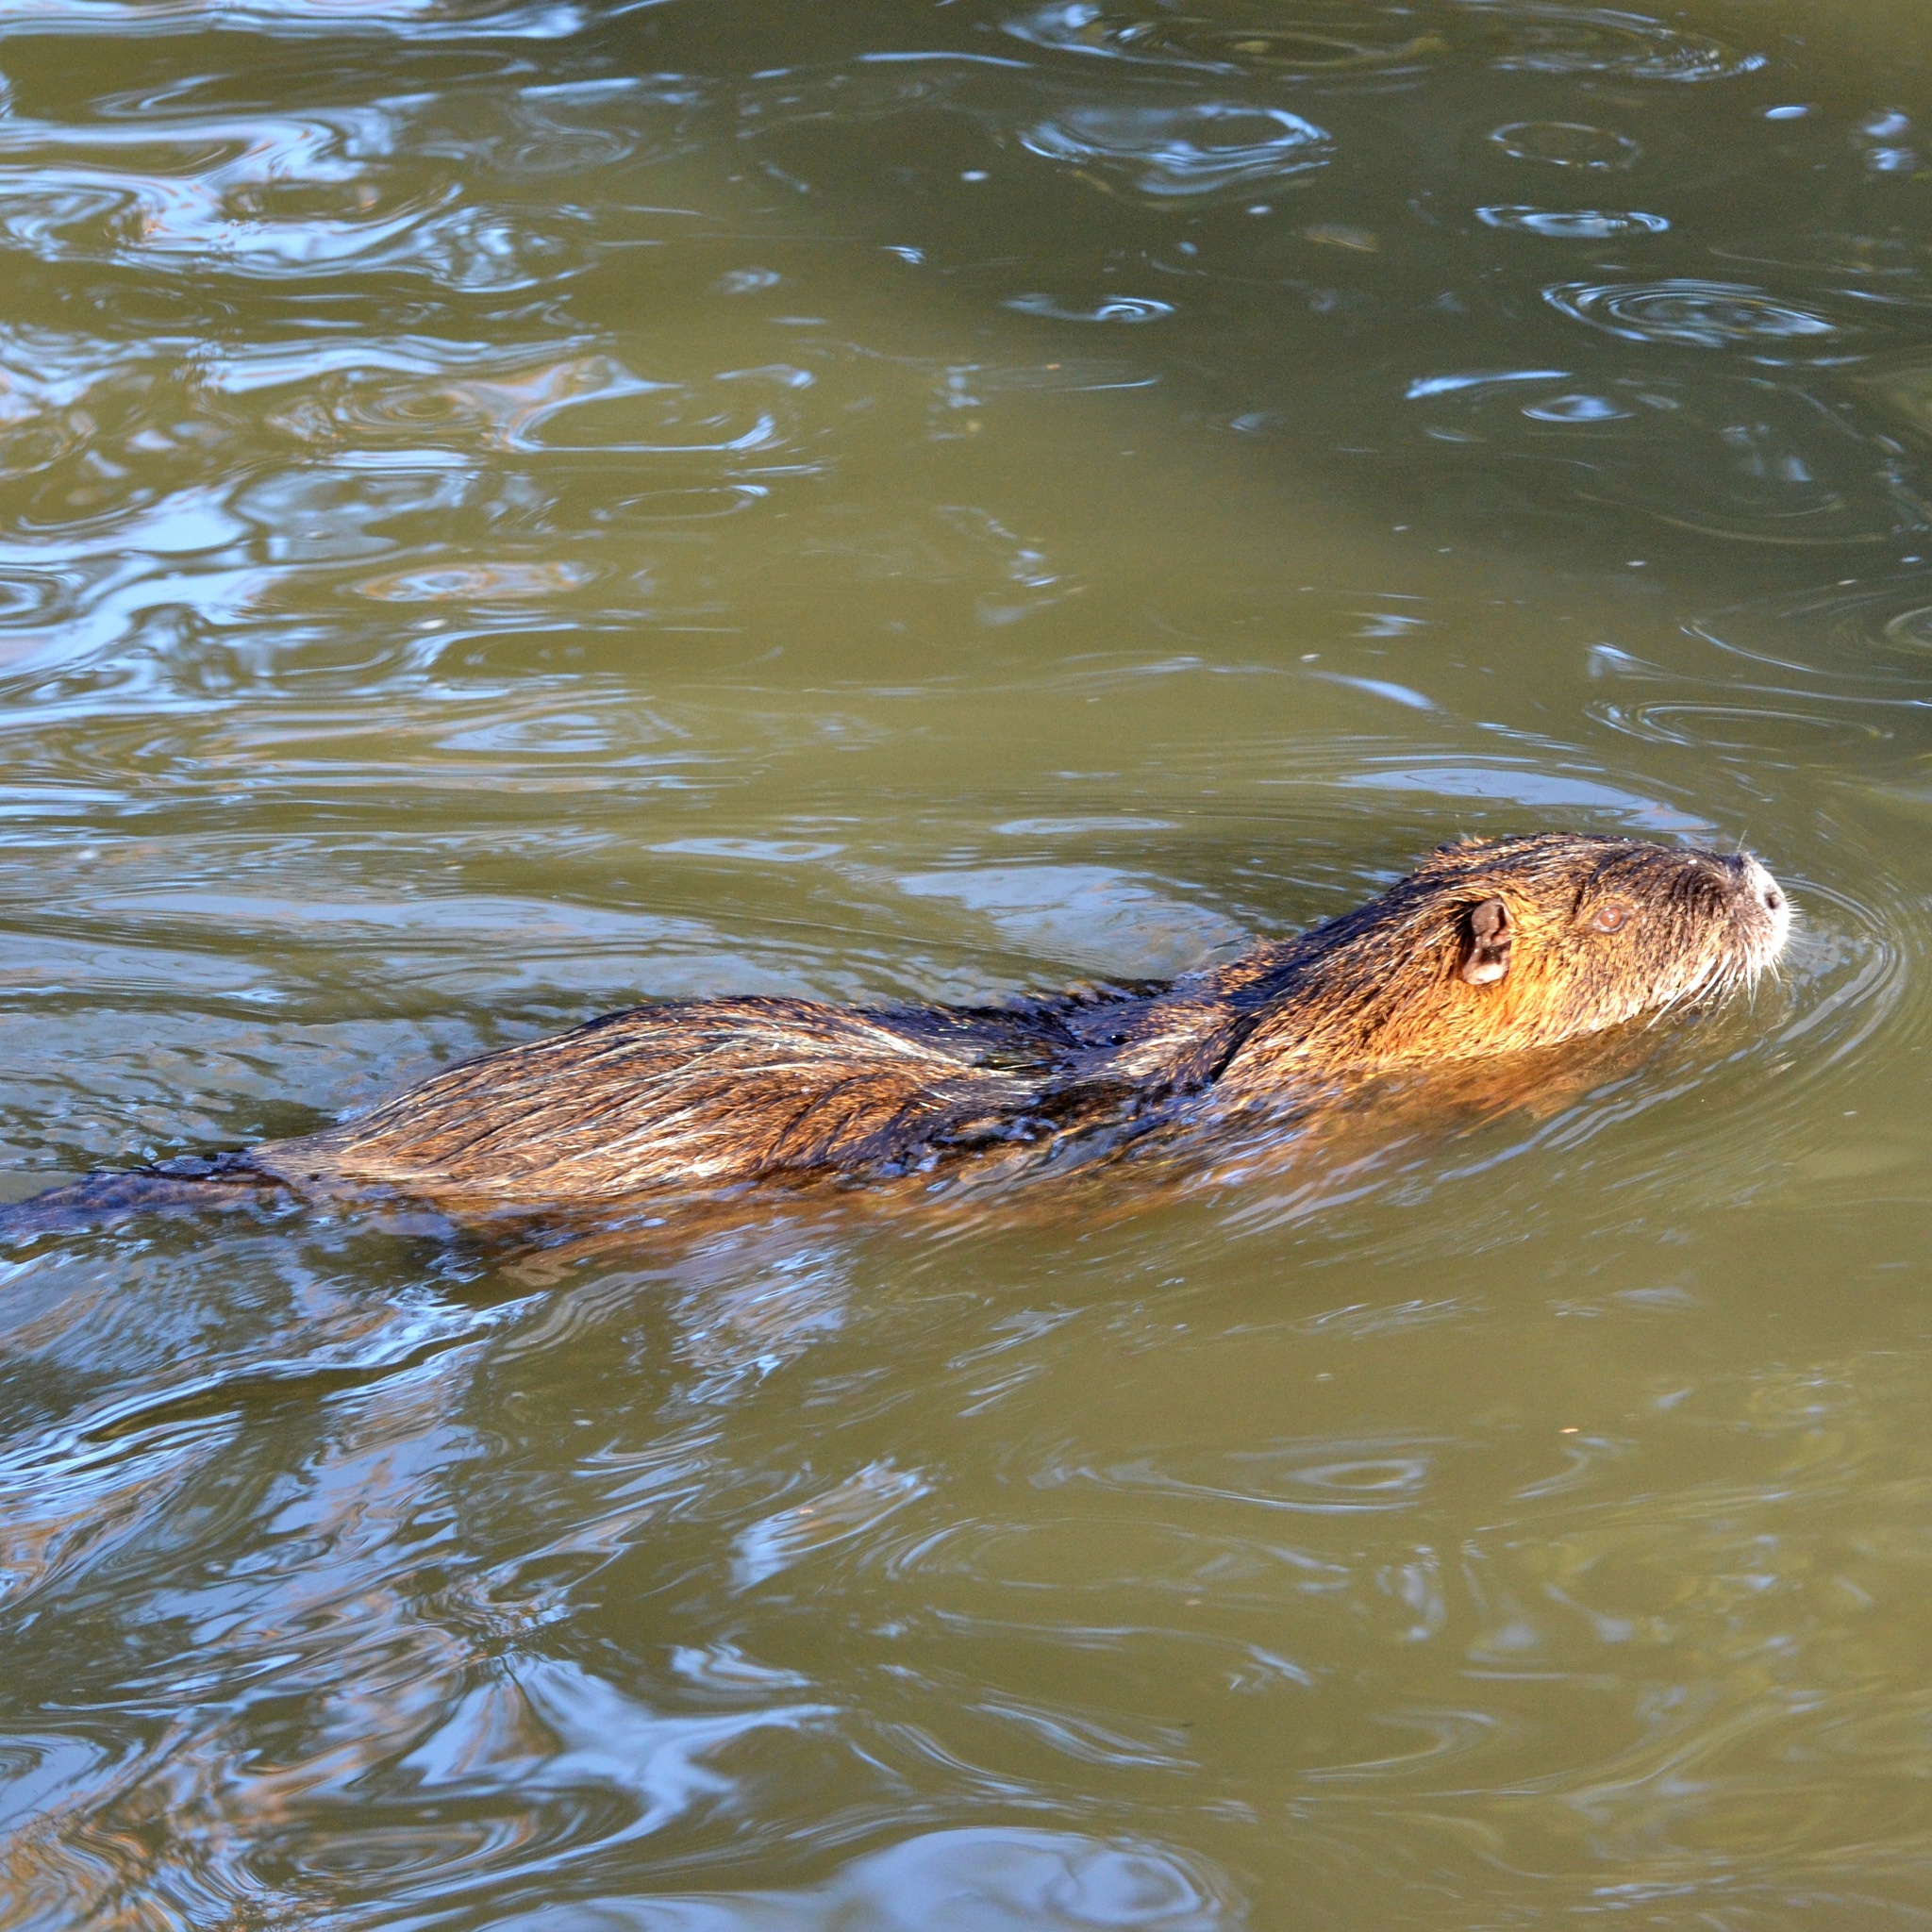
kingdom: Animalia
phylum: Chordata
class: Mammalia
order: Rodentia
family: Myocastoridae
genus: Myocastor
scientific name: Myocastor coypus
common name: Coypu
